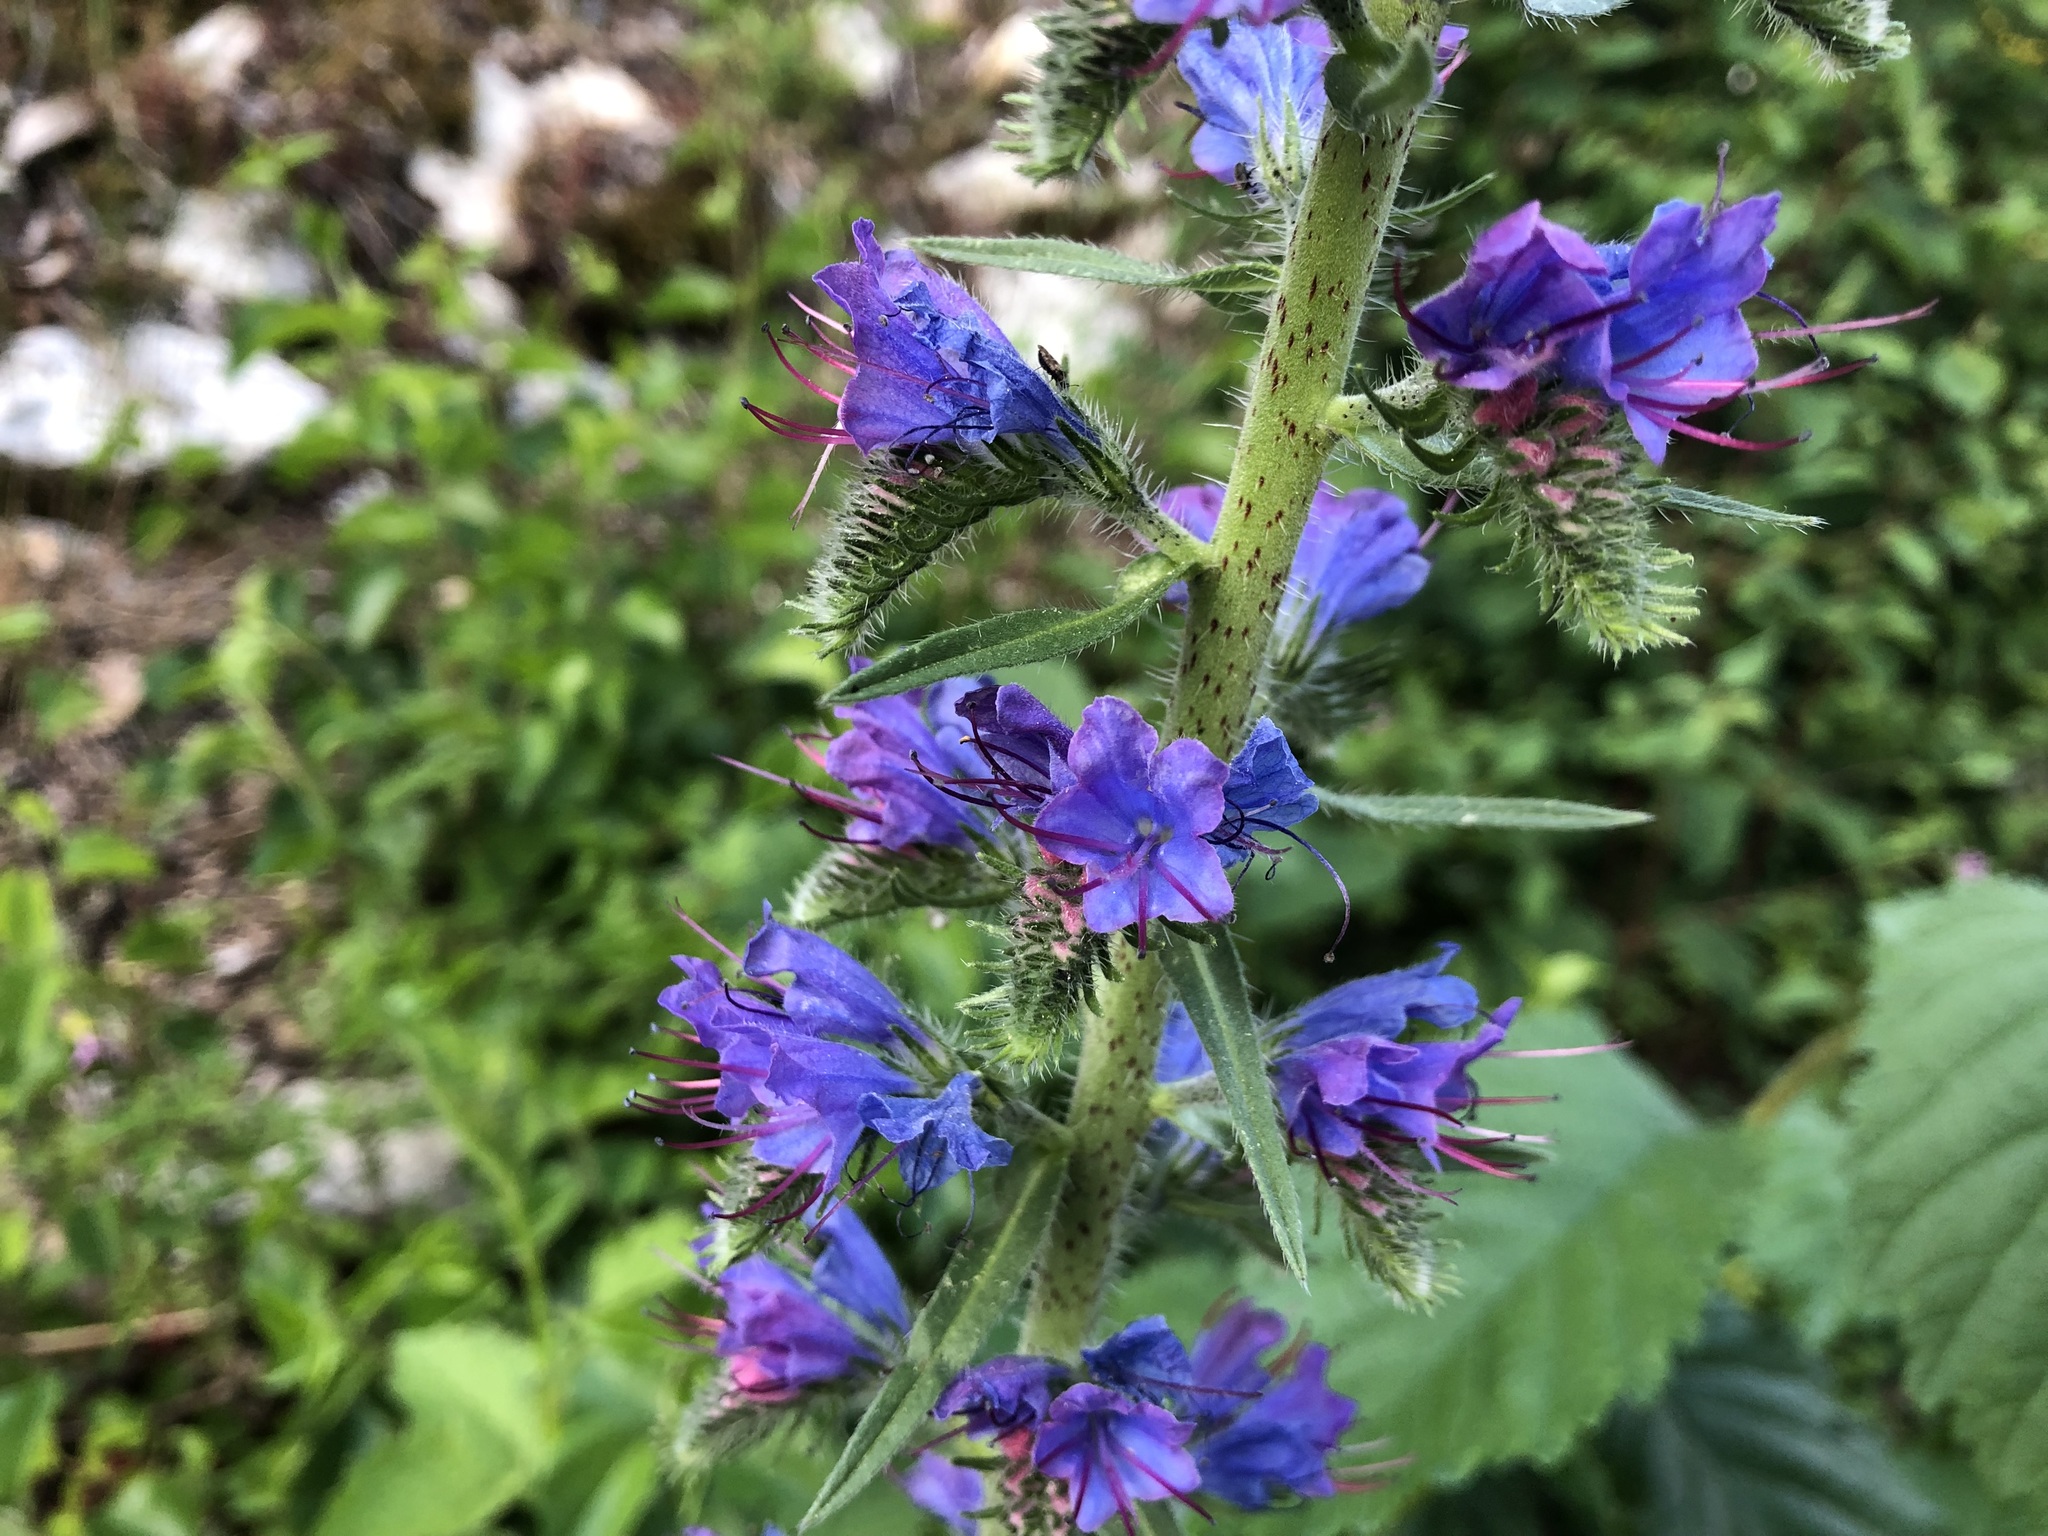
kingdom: Plantae
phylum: Tracheophyta
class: Magnoliopsida
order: Boraginales
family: Boraginaceae
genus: Echium
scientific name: Echium vulgare
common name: Common viper's bugloss
